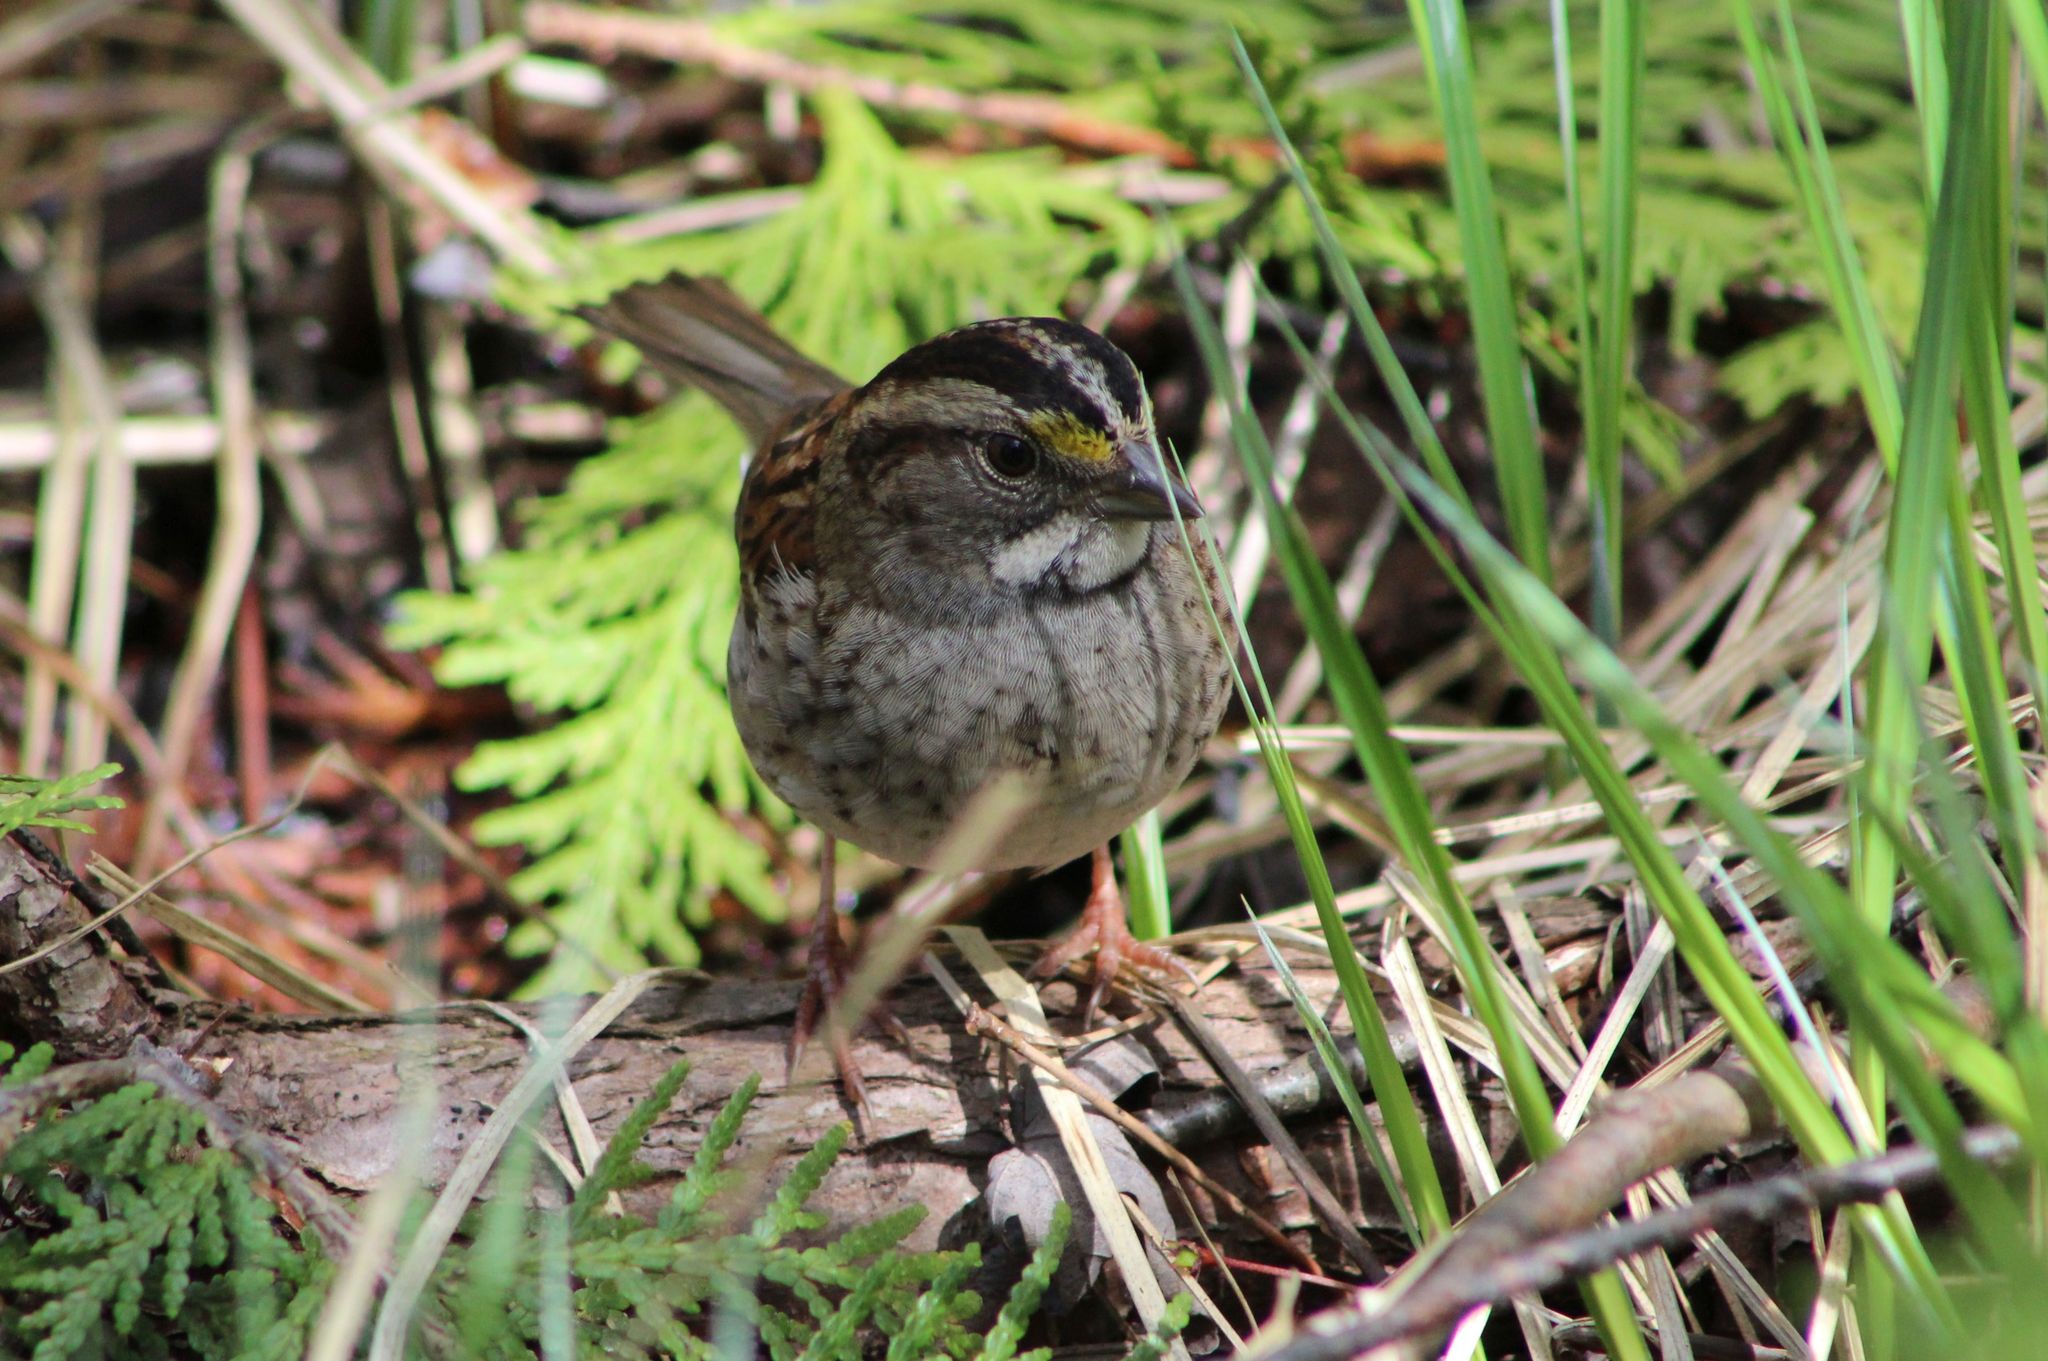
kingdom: Animalia
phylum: Chordata
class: Aves
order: Passeriformes
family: Passerellidae
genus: Zonotrichia
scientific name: Zonotrichia albicollis
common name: White-throated sparrow
